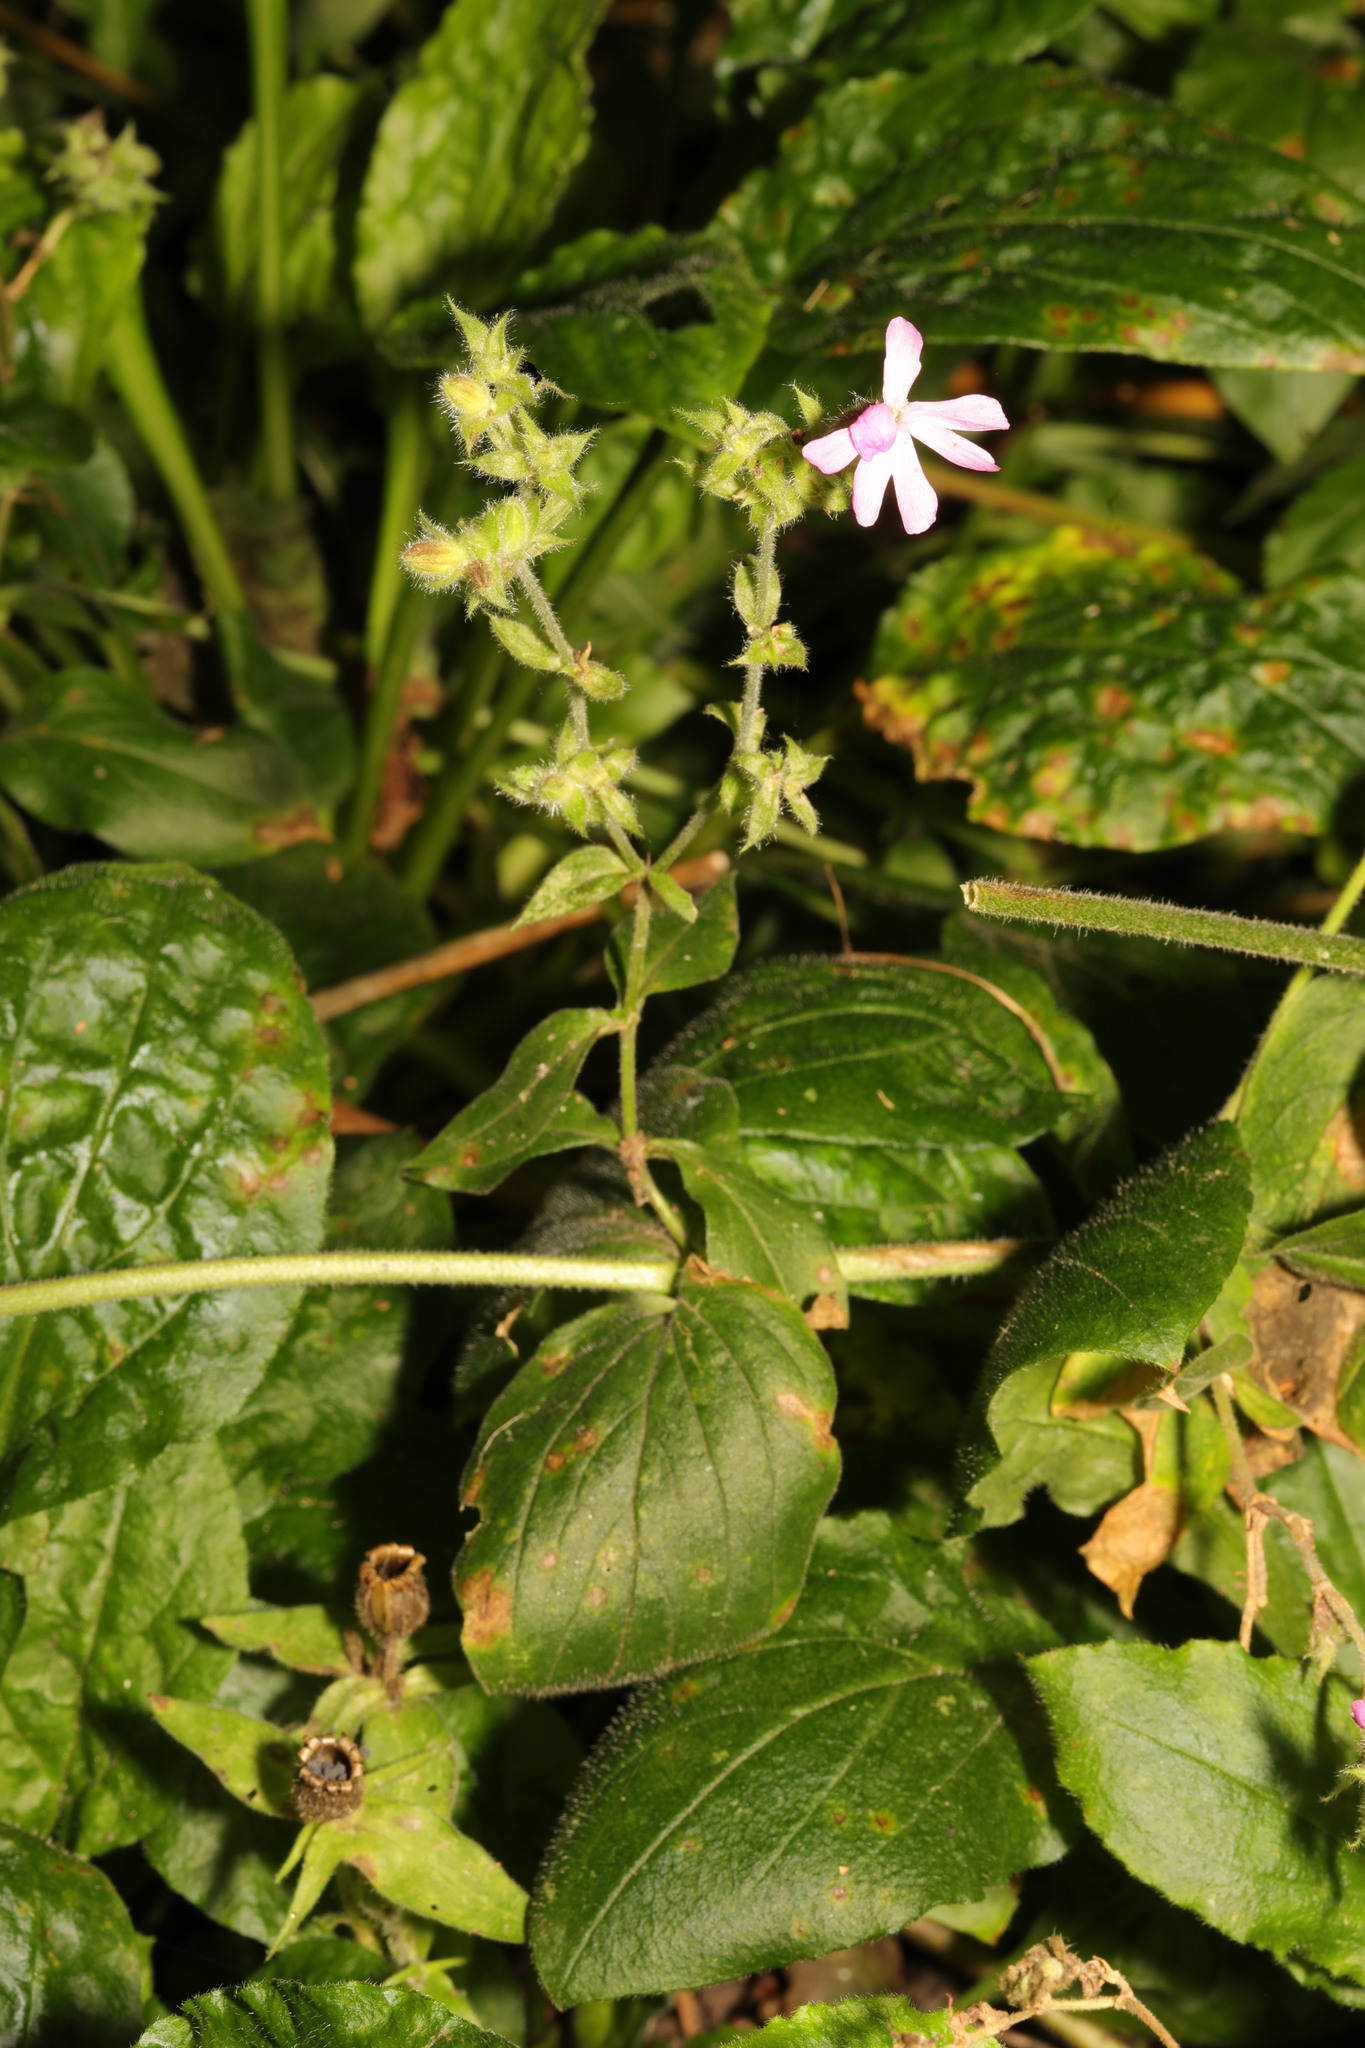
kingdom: Plantae
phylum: Tracheophyta
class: Magnoliopsida
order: Caryophyllales
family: Caryophyllaceae
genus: Silene
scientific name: Silene dioica
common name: Red campion
